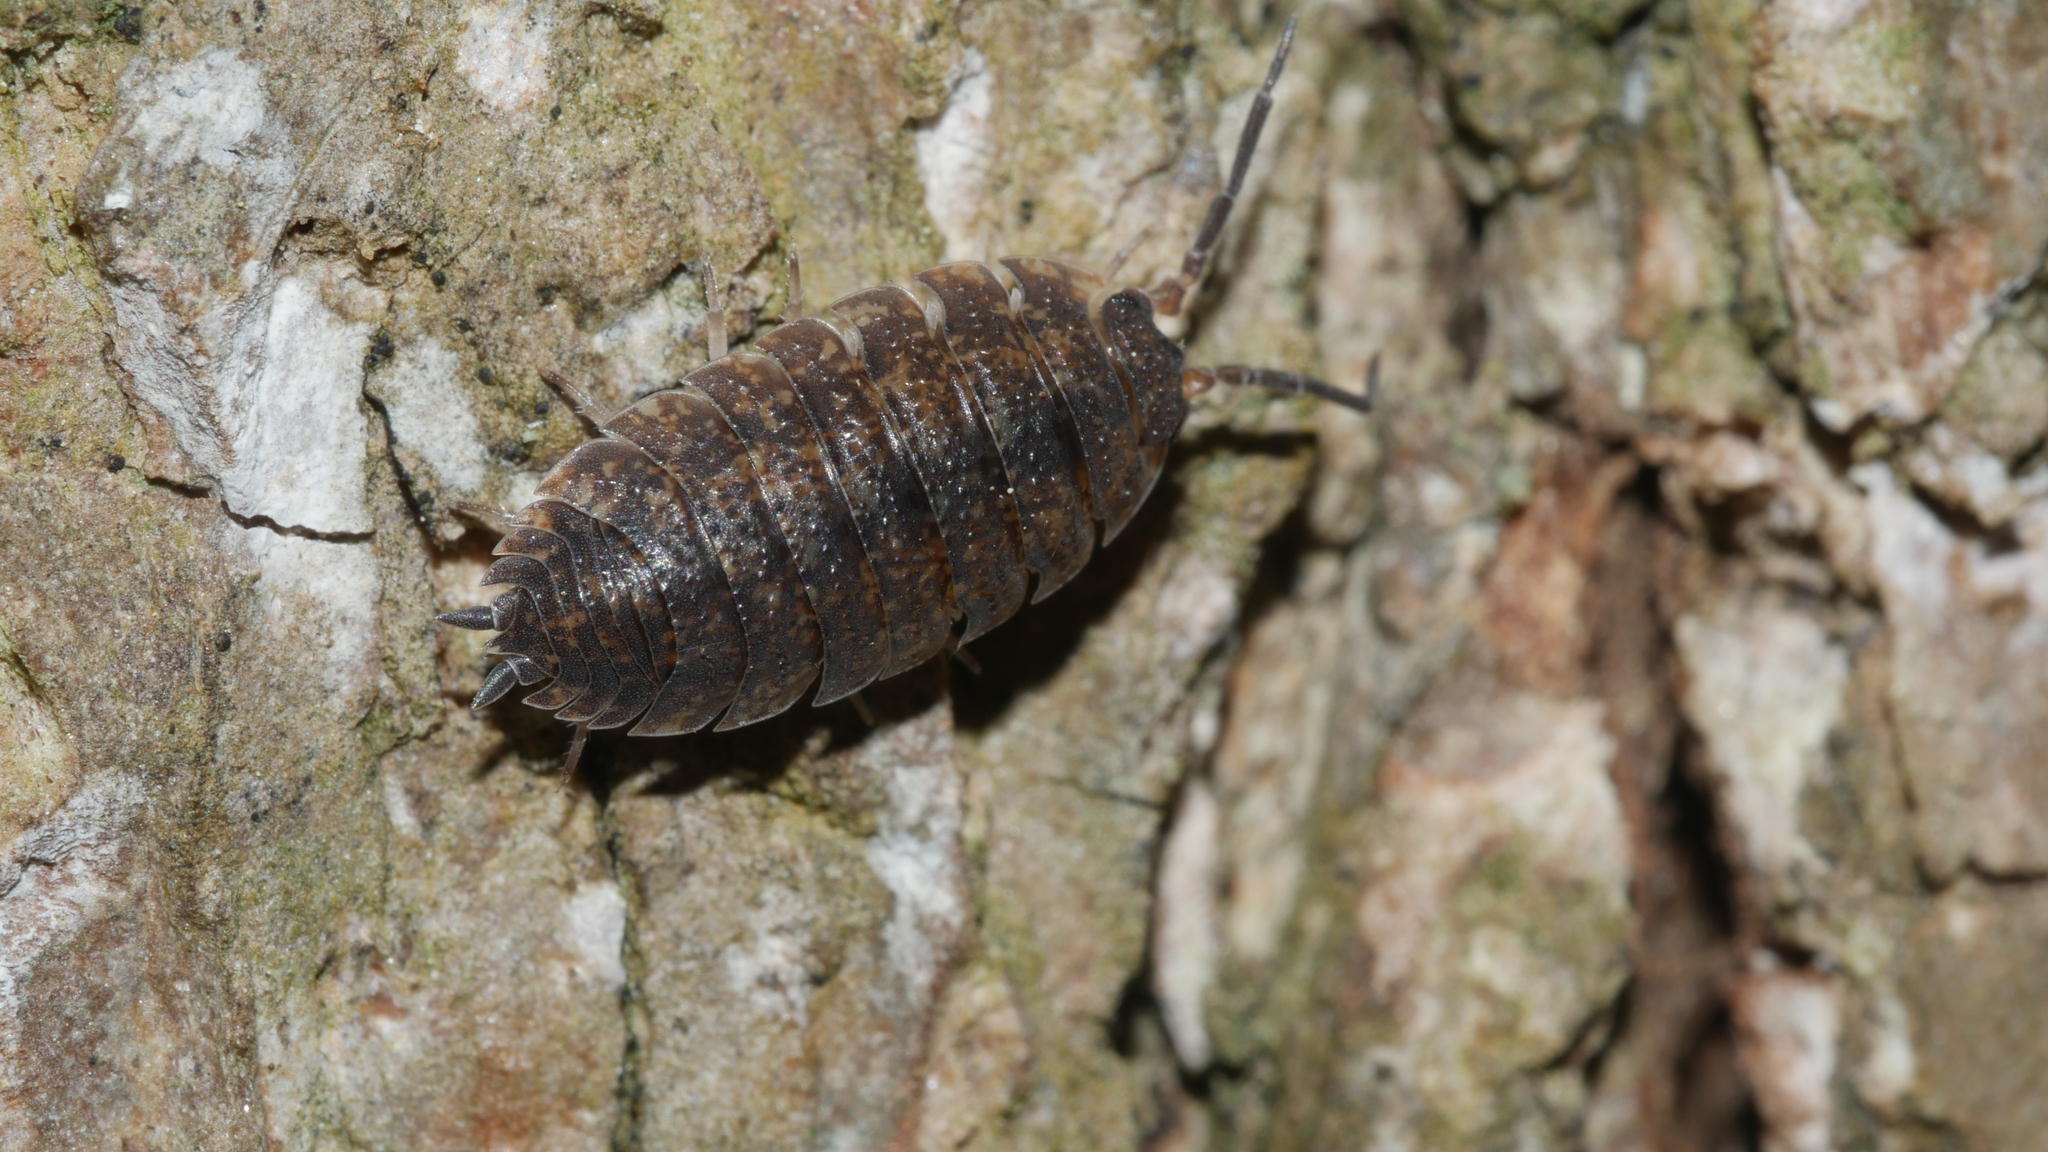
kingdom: Animalia
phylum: Arthropoda
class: Malacostraca
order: Isopoda
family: Porcellionidae
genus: Porcellio
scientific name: Porcellio scaber
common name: Common rough woodlouse
